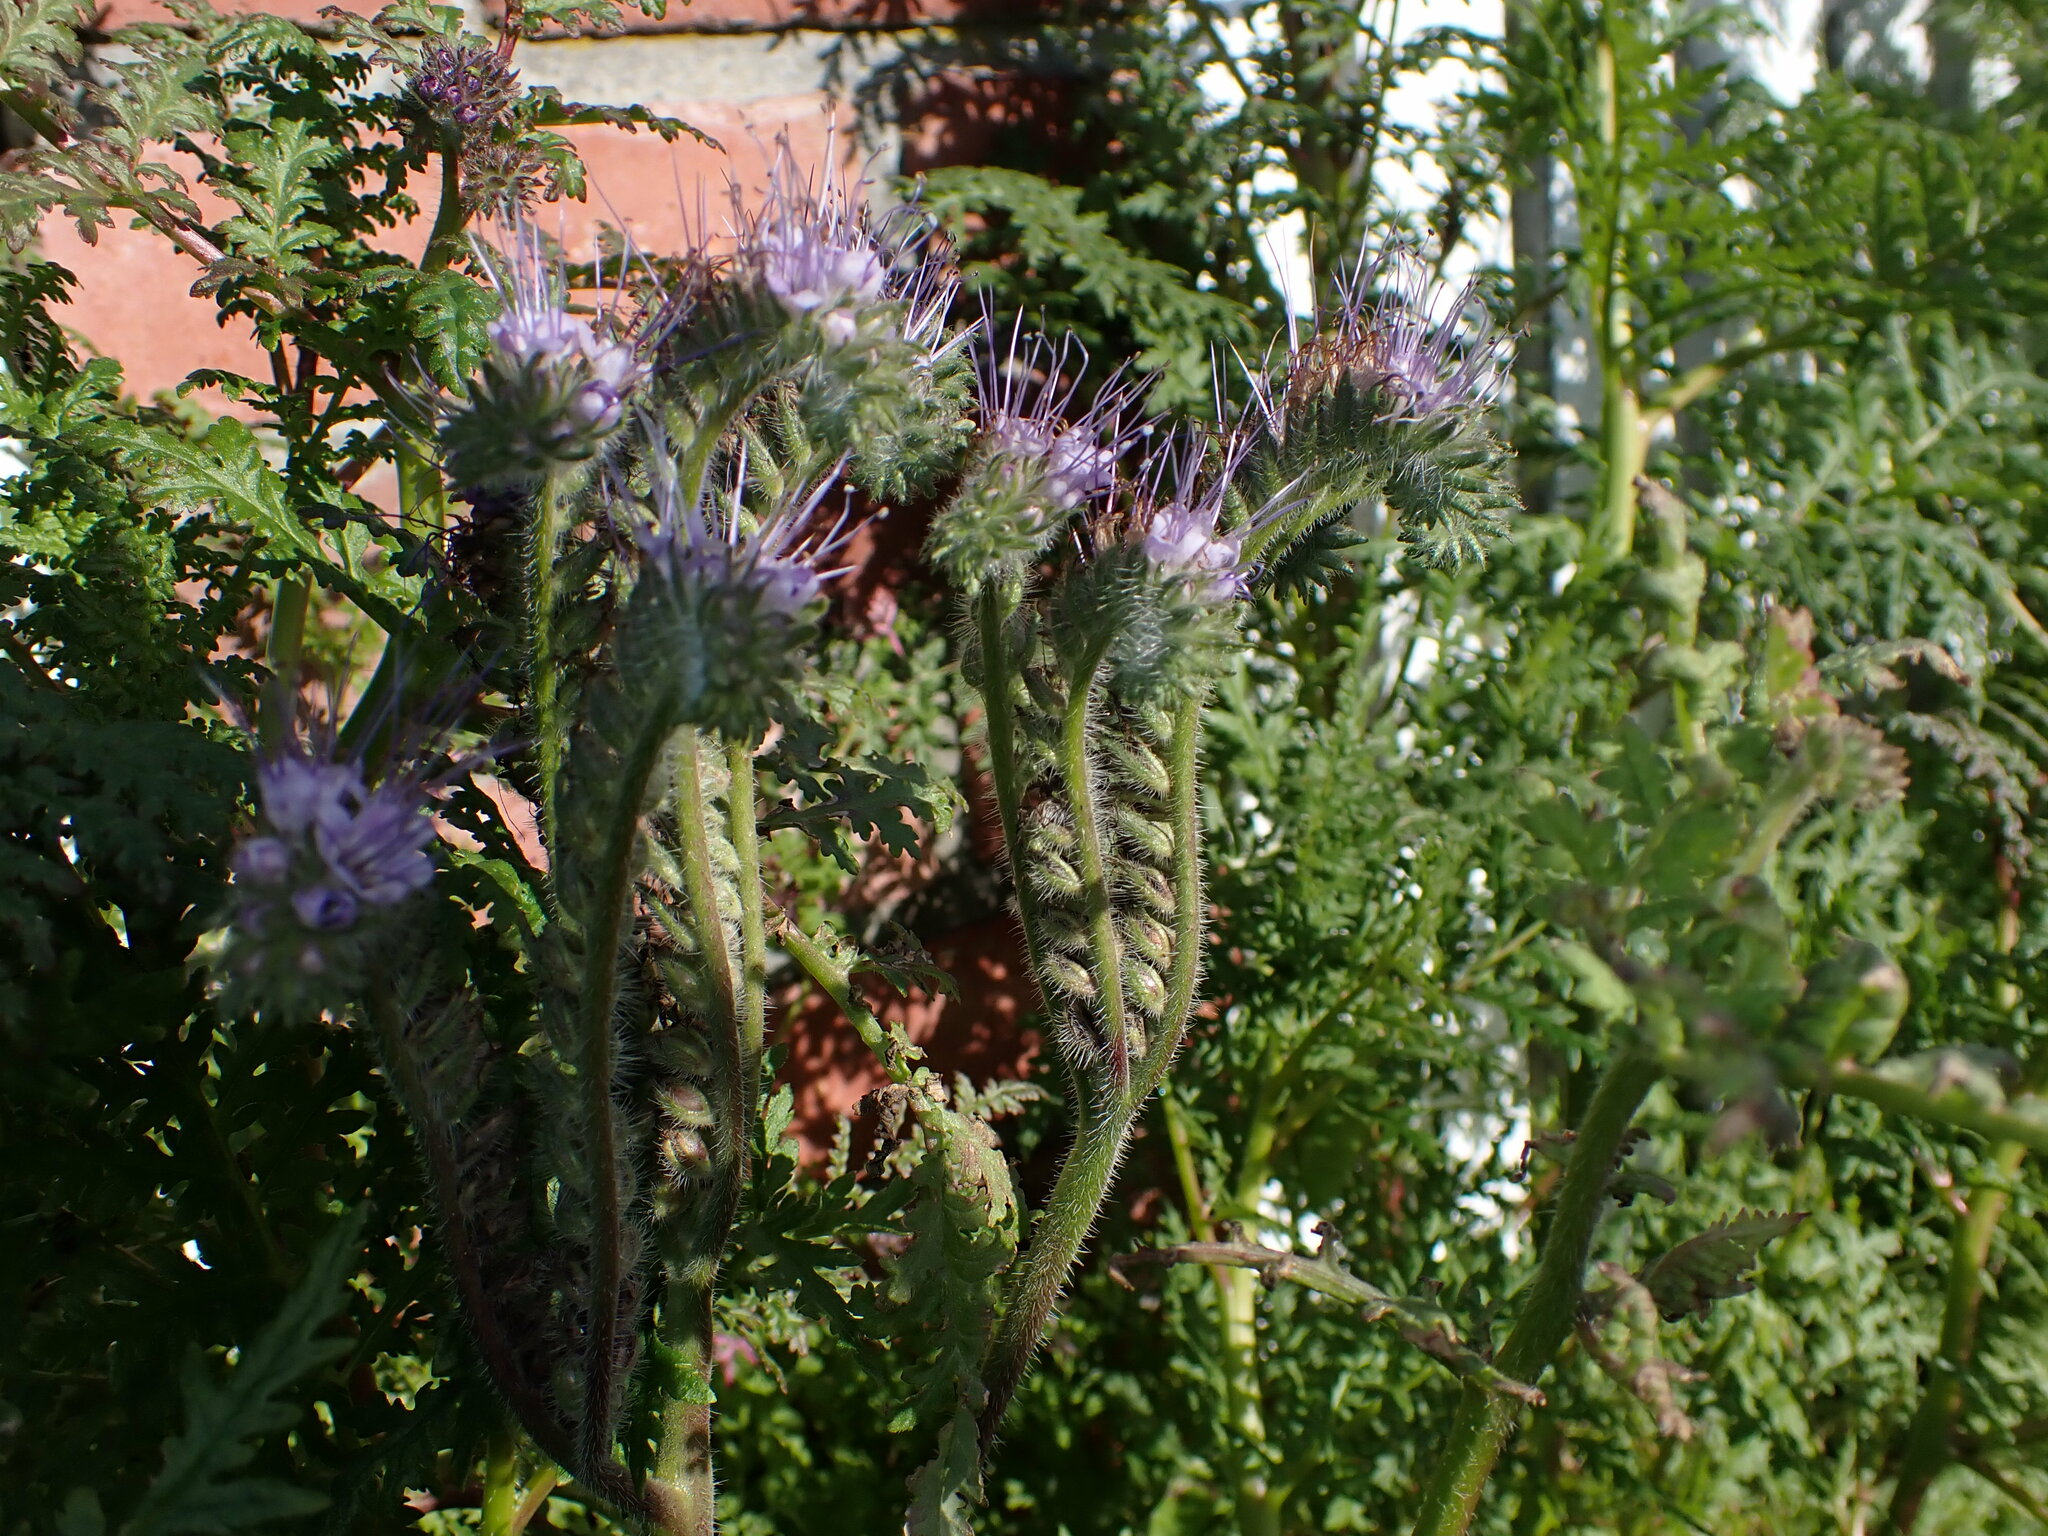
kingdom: Plantae
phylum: Tracheophyta
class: Magnoliopsida
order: Boraginales
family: Hydrophyllaceae
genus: Phacelia
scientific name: Phacelia tanacetifolia
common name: Phacelia
